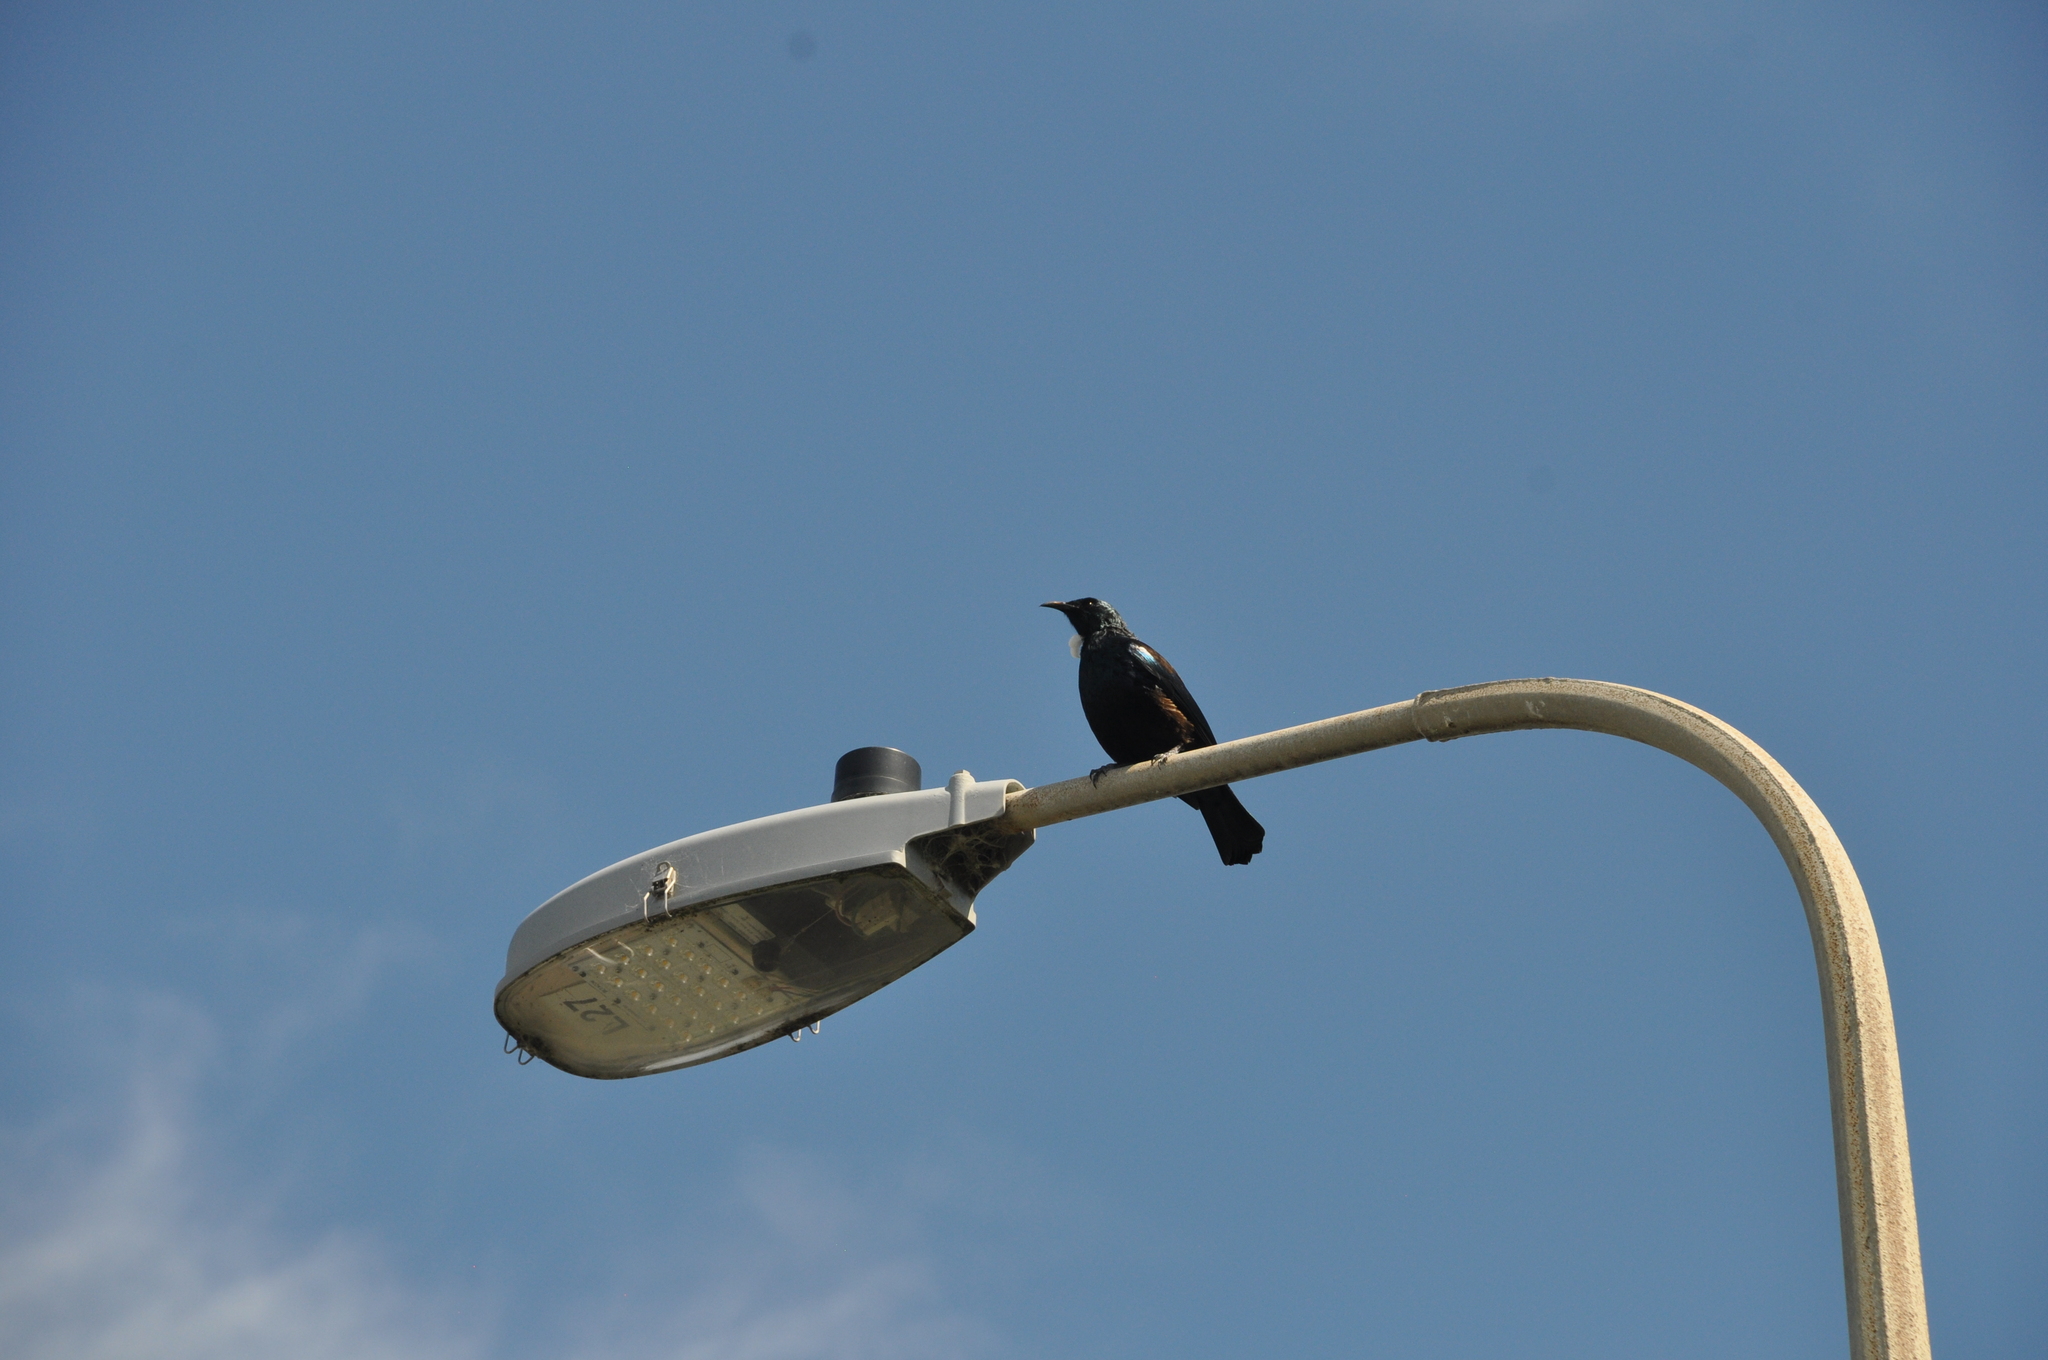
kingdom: Animalia
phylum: Chordata
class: Aves
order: Passeriformes
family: Meliphagidae
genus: Prosthemadera
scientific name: Prosthemadera novaeseelandiae
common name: Tui
